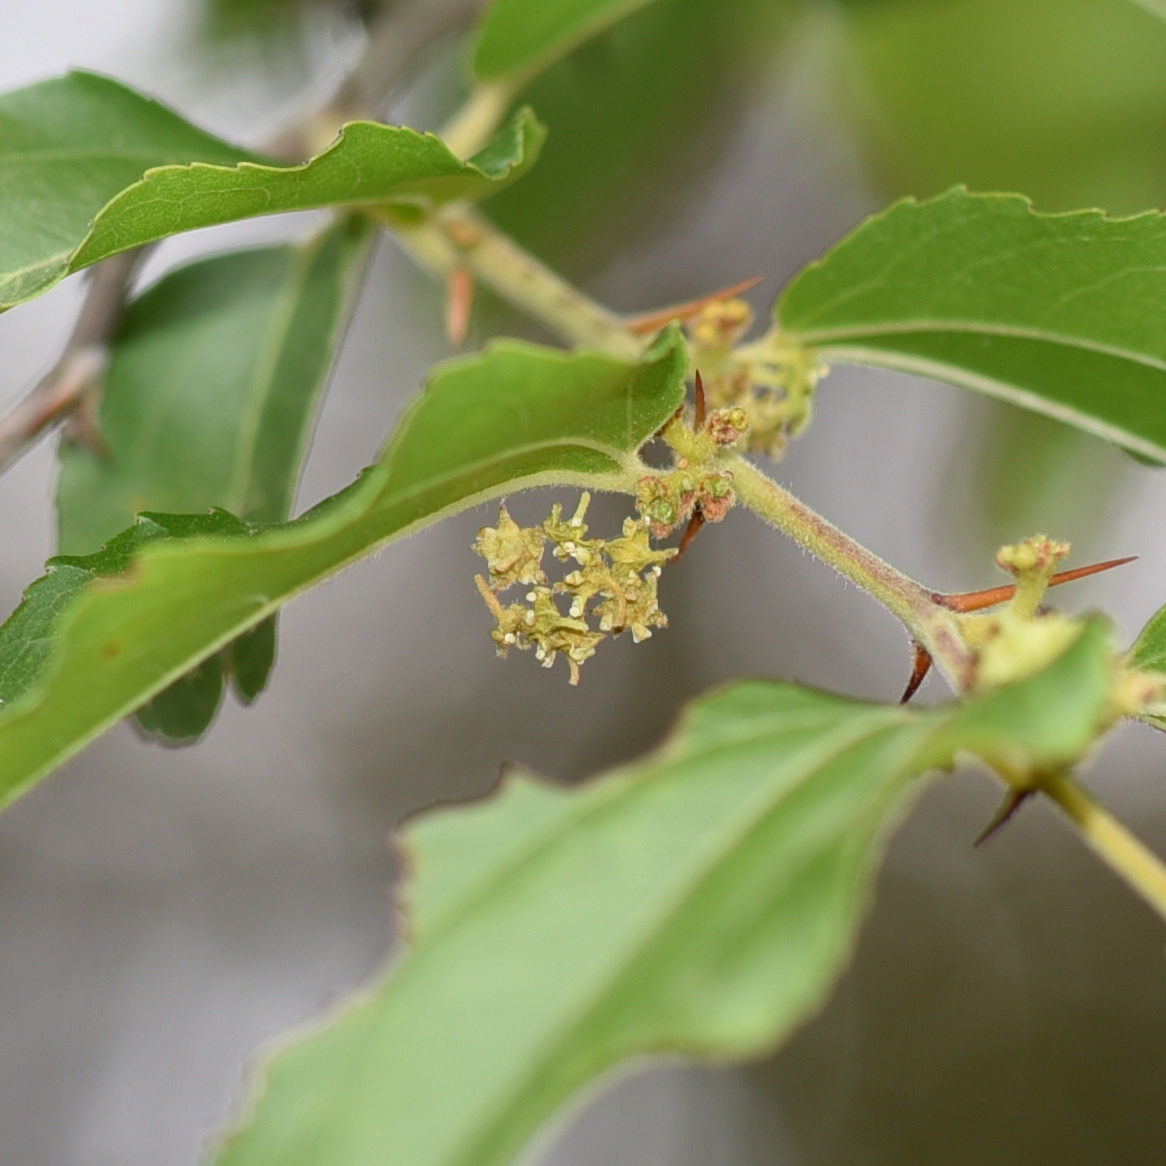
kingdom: Plantae
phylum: Tracheophyta
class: Magnoliopsida
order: Rosales
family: Rhamnaceae
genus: Ziziphus
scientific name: Ziziphus mucronata
